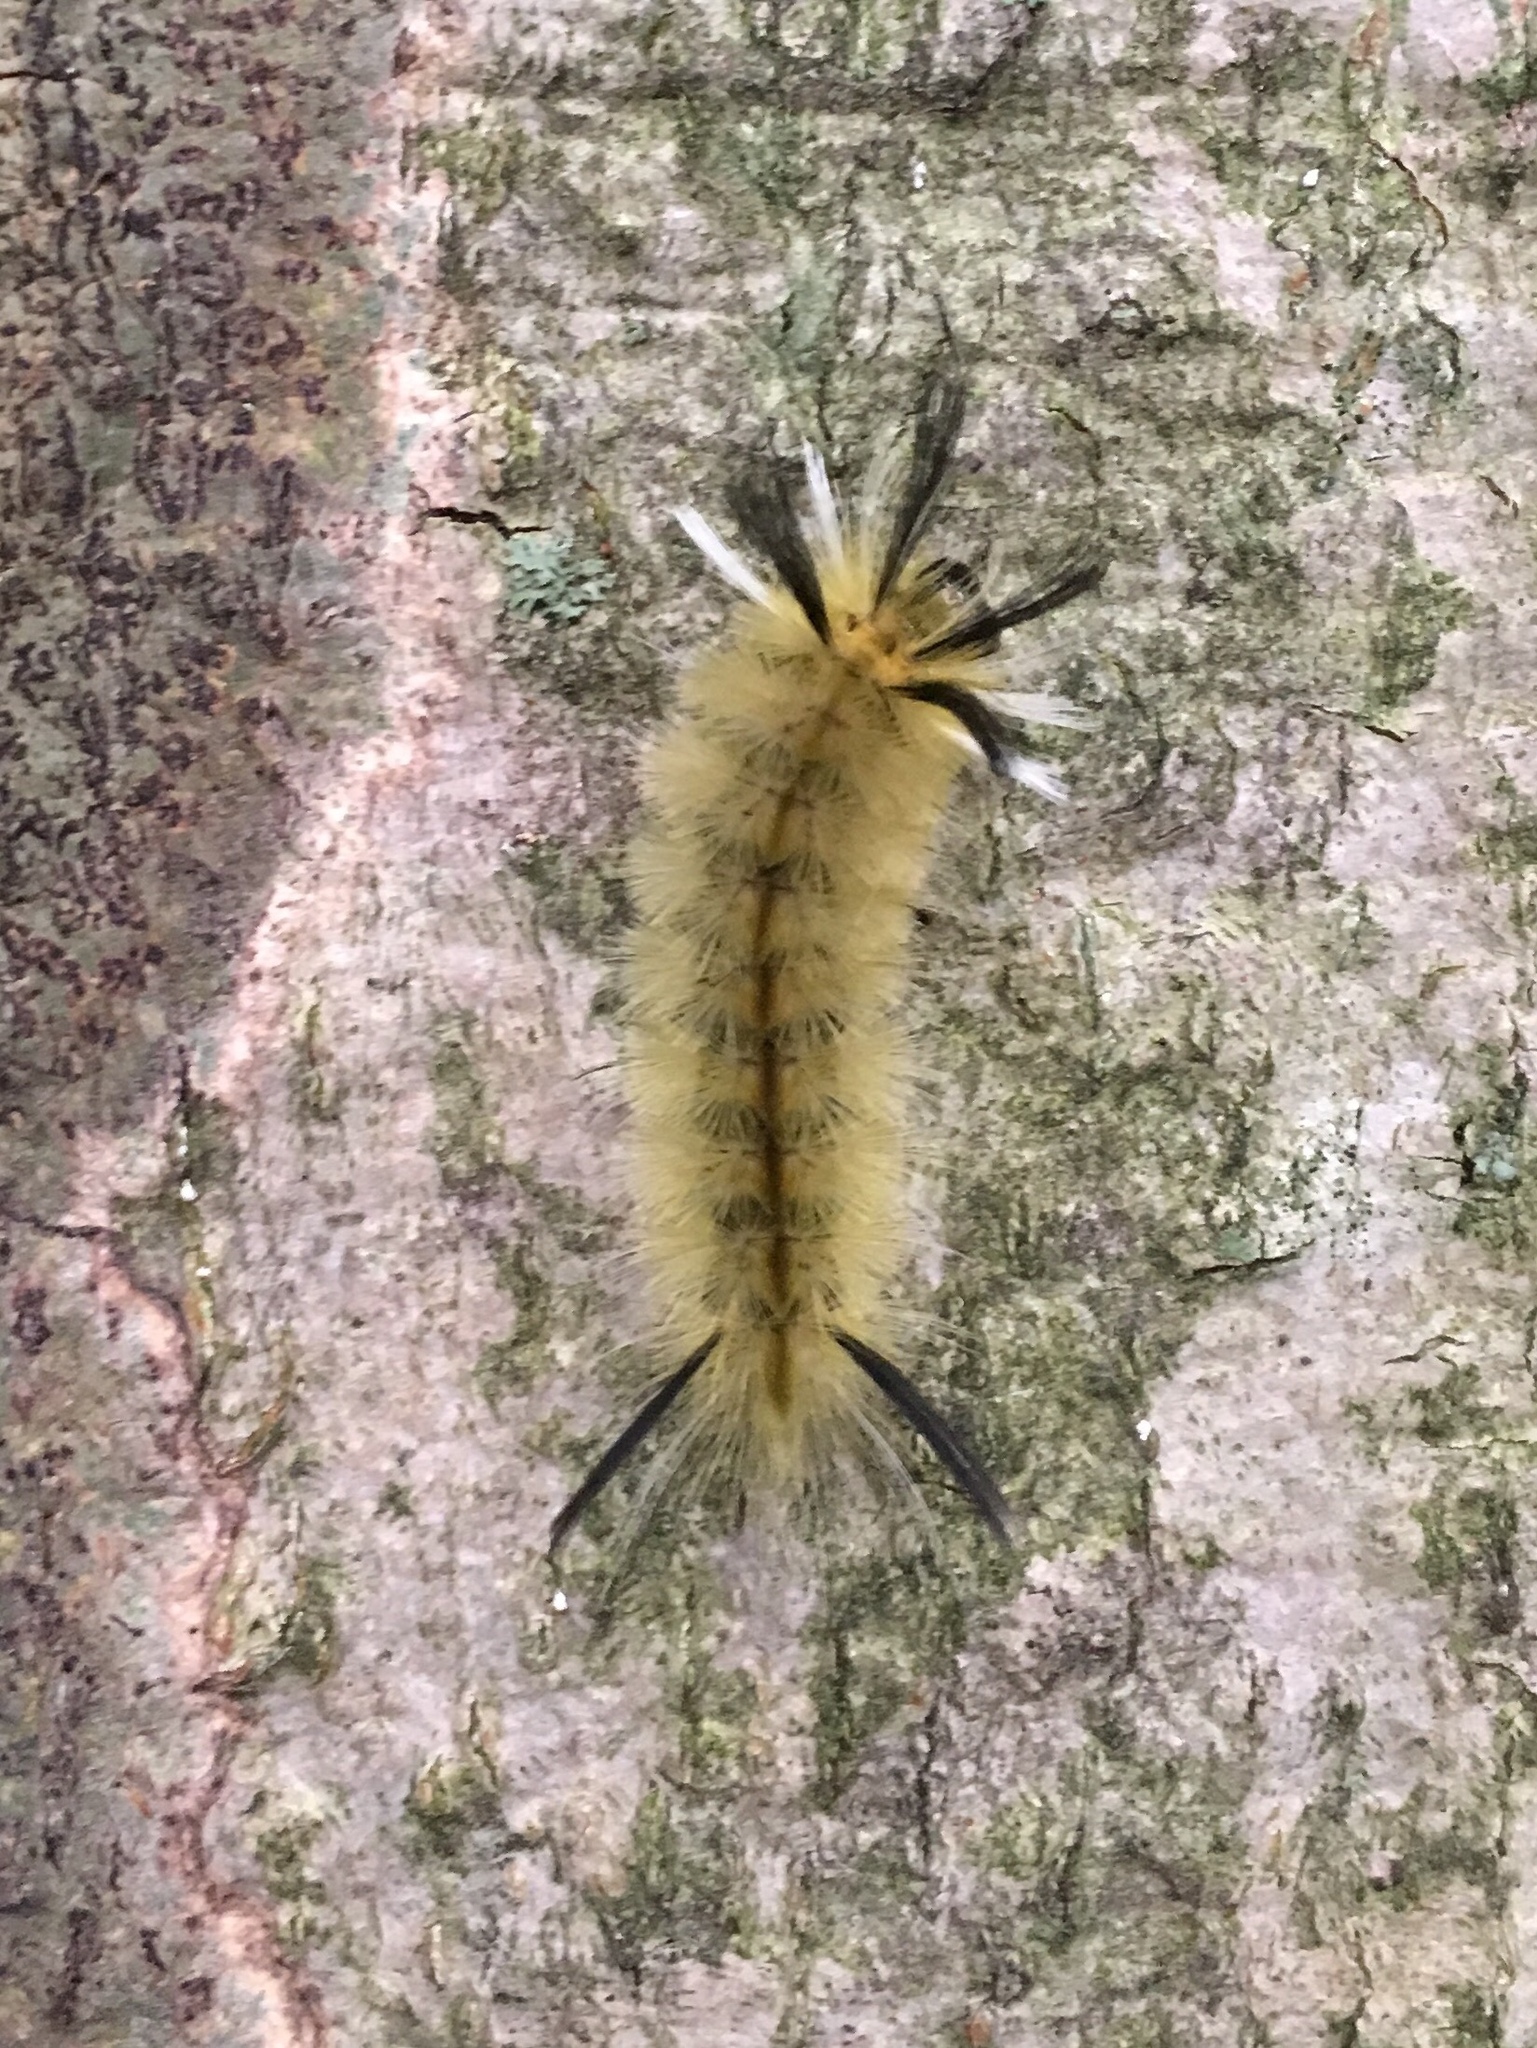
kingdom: Animalia
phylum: Arthropoda
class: Insecta
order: Lepidoptera
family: Erebidae
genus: Halysidota
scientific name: Halysidota tessellaris
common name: Banded tussock moth
